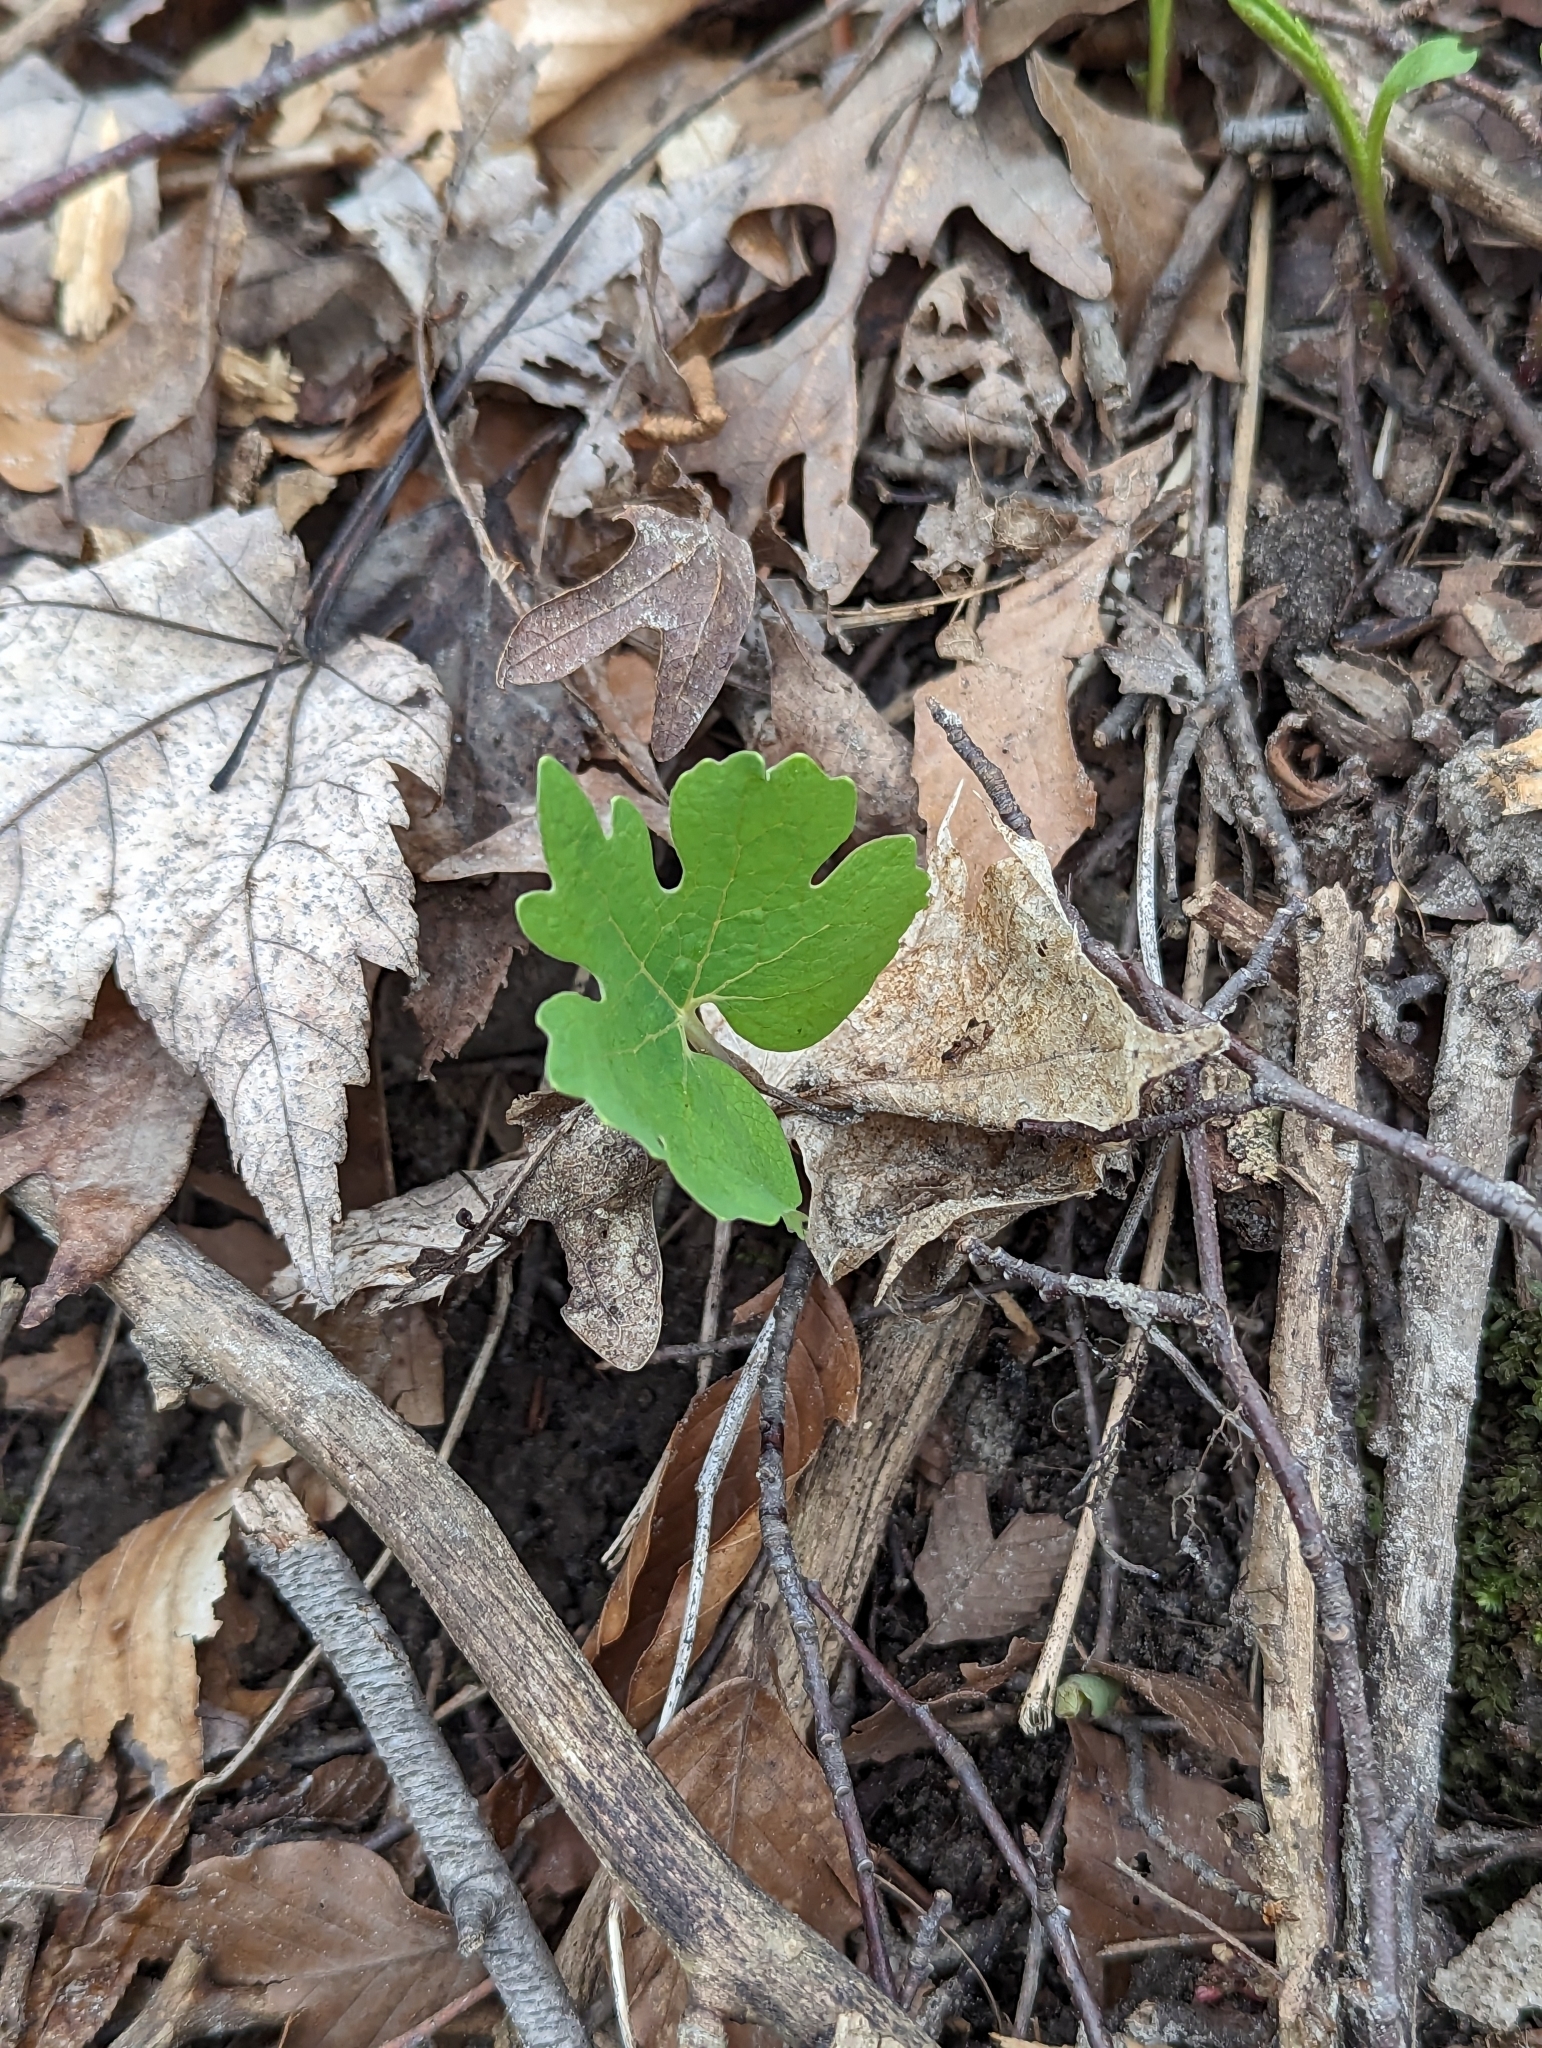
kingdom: Plantae
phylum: Tracheophyta
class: Magnoliopsida
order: Ranunculales
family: Papaveraceae
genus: Sanguinaria
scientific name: Sanguinaria canadensis
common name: Bloodroot
